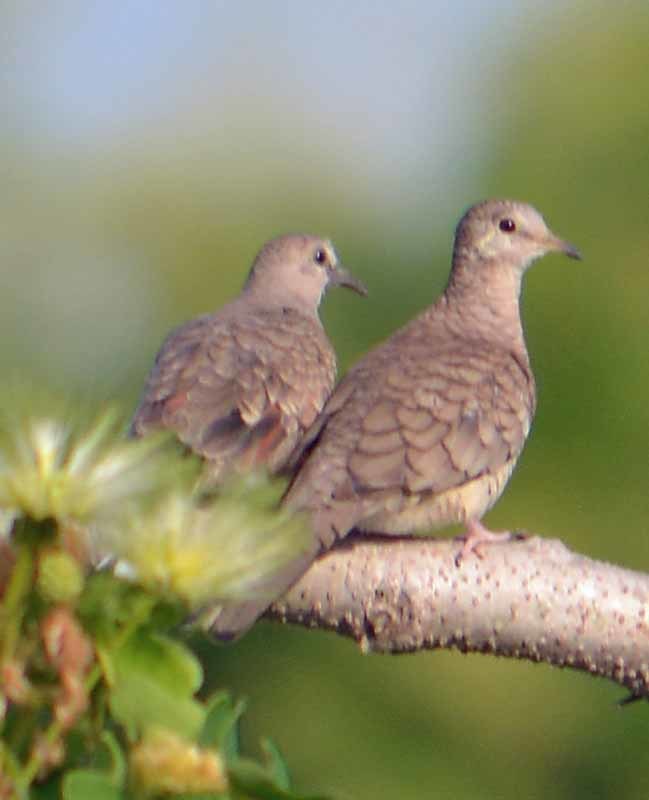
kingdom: Animalia
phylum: Chordata
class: Aves
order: Columbiformes
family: Columbidae
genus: Columbina
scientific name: Columbina inca
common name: Inca dove
